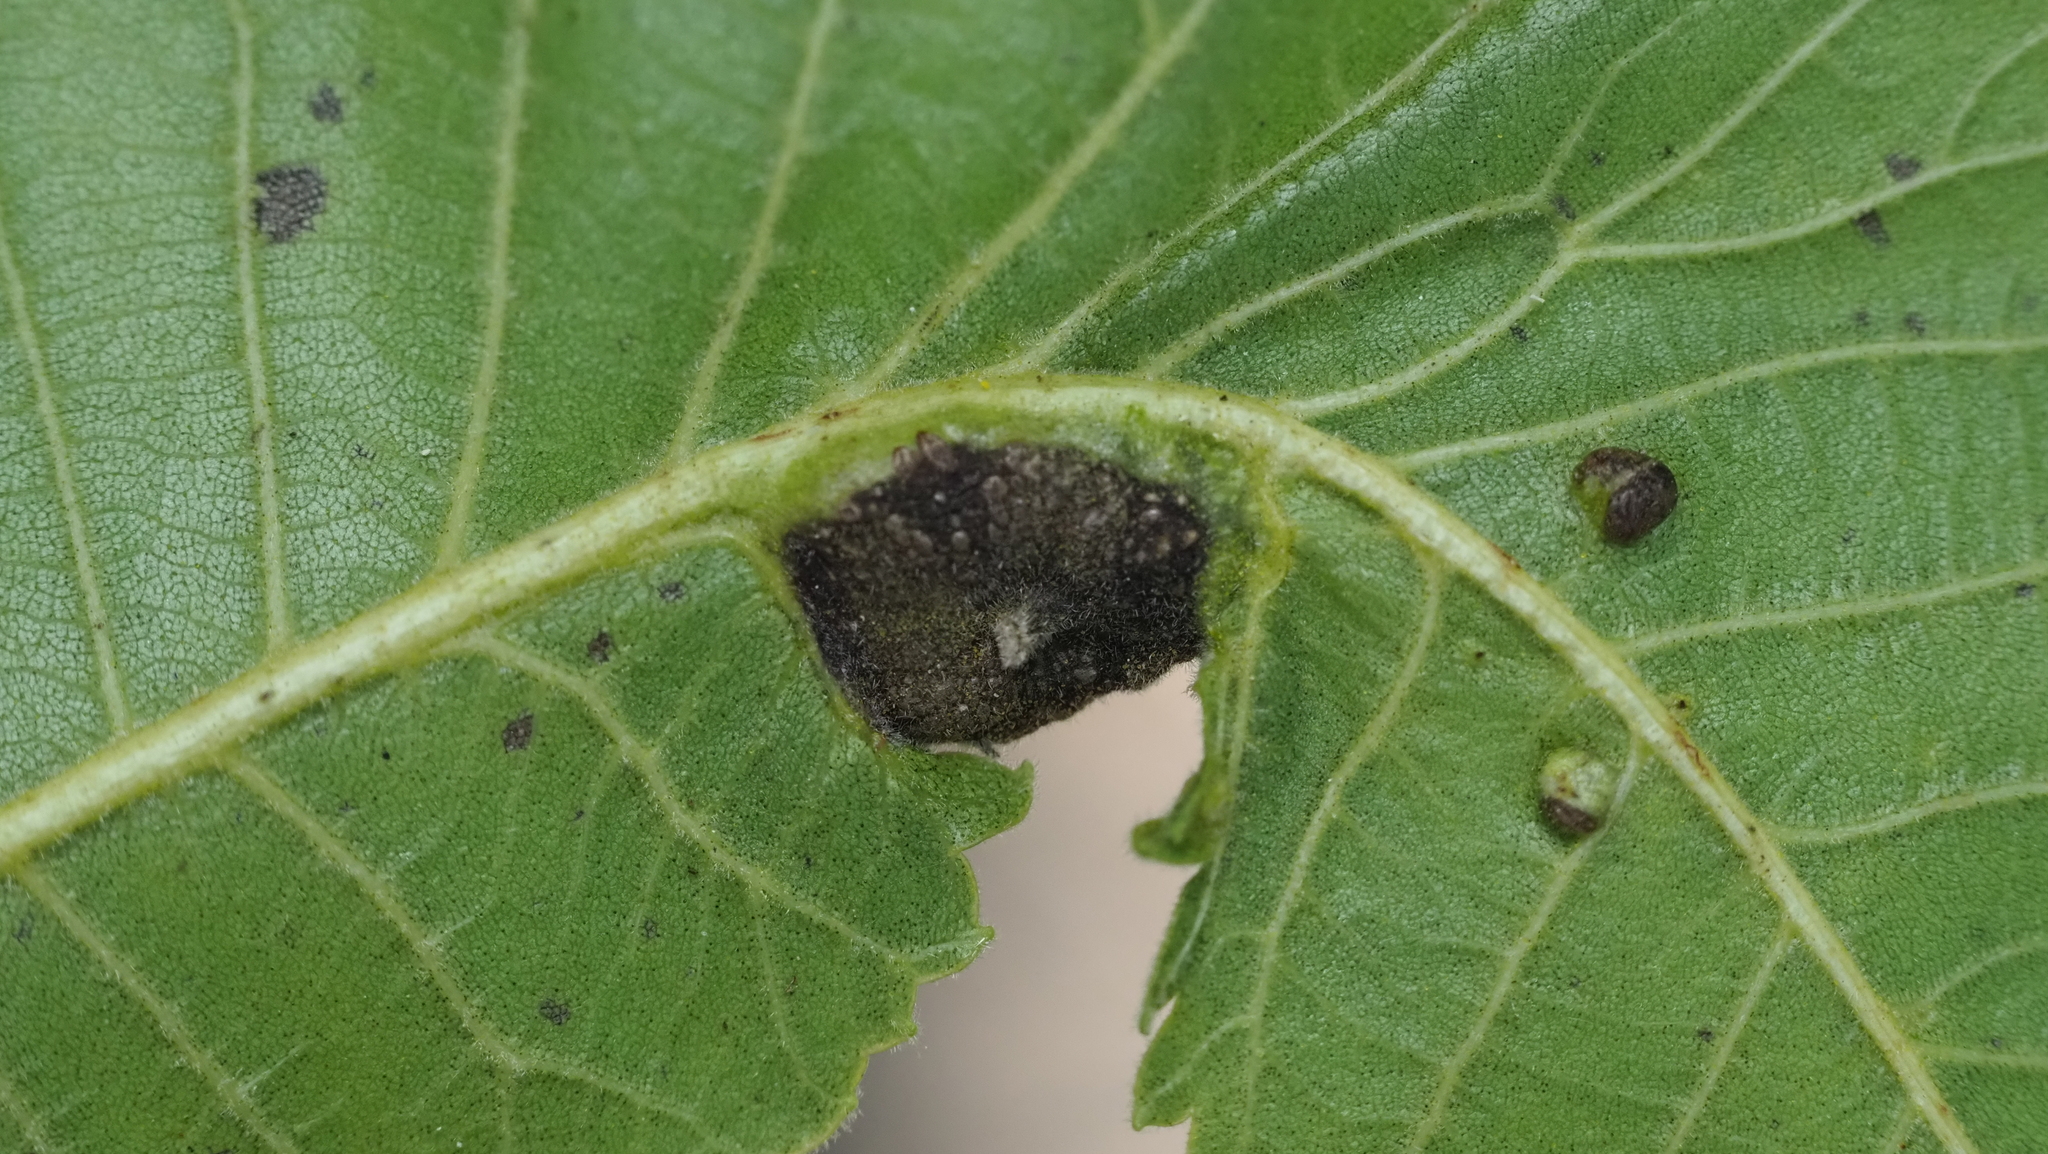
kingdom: Animalia
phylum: Arthropoda
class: Insecta
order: Hemiptera
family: Phylloxeridae
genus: Daktulosphaira
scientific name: Daktulosphaira notabilis
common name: Pecan leaf phylloxera
